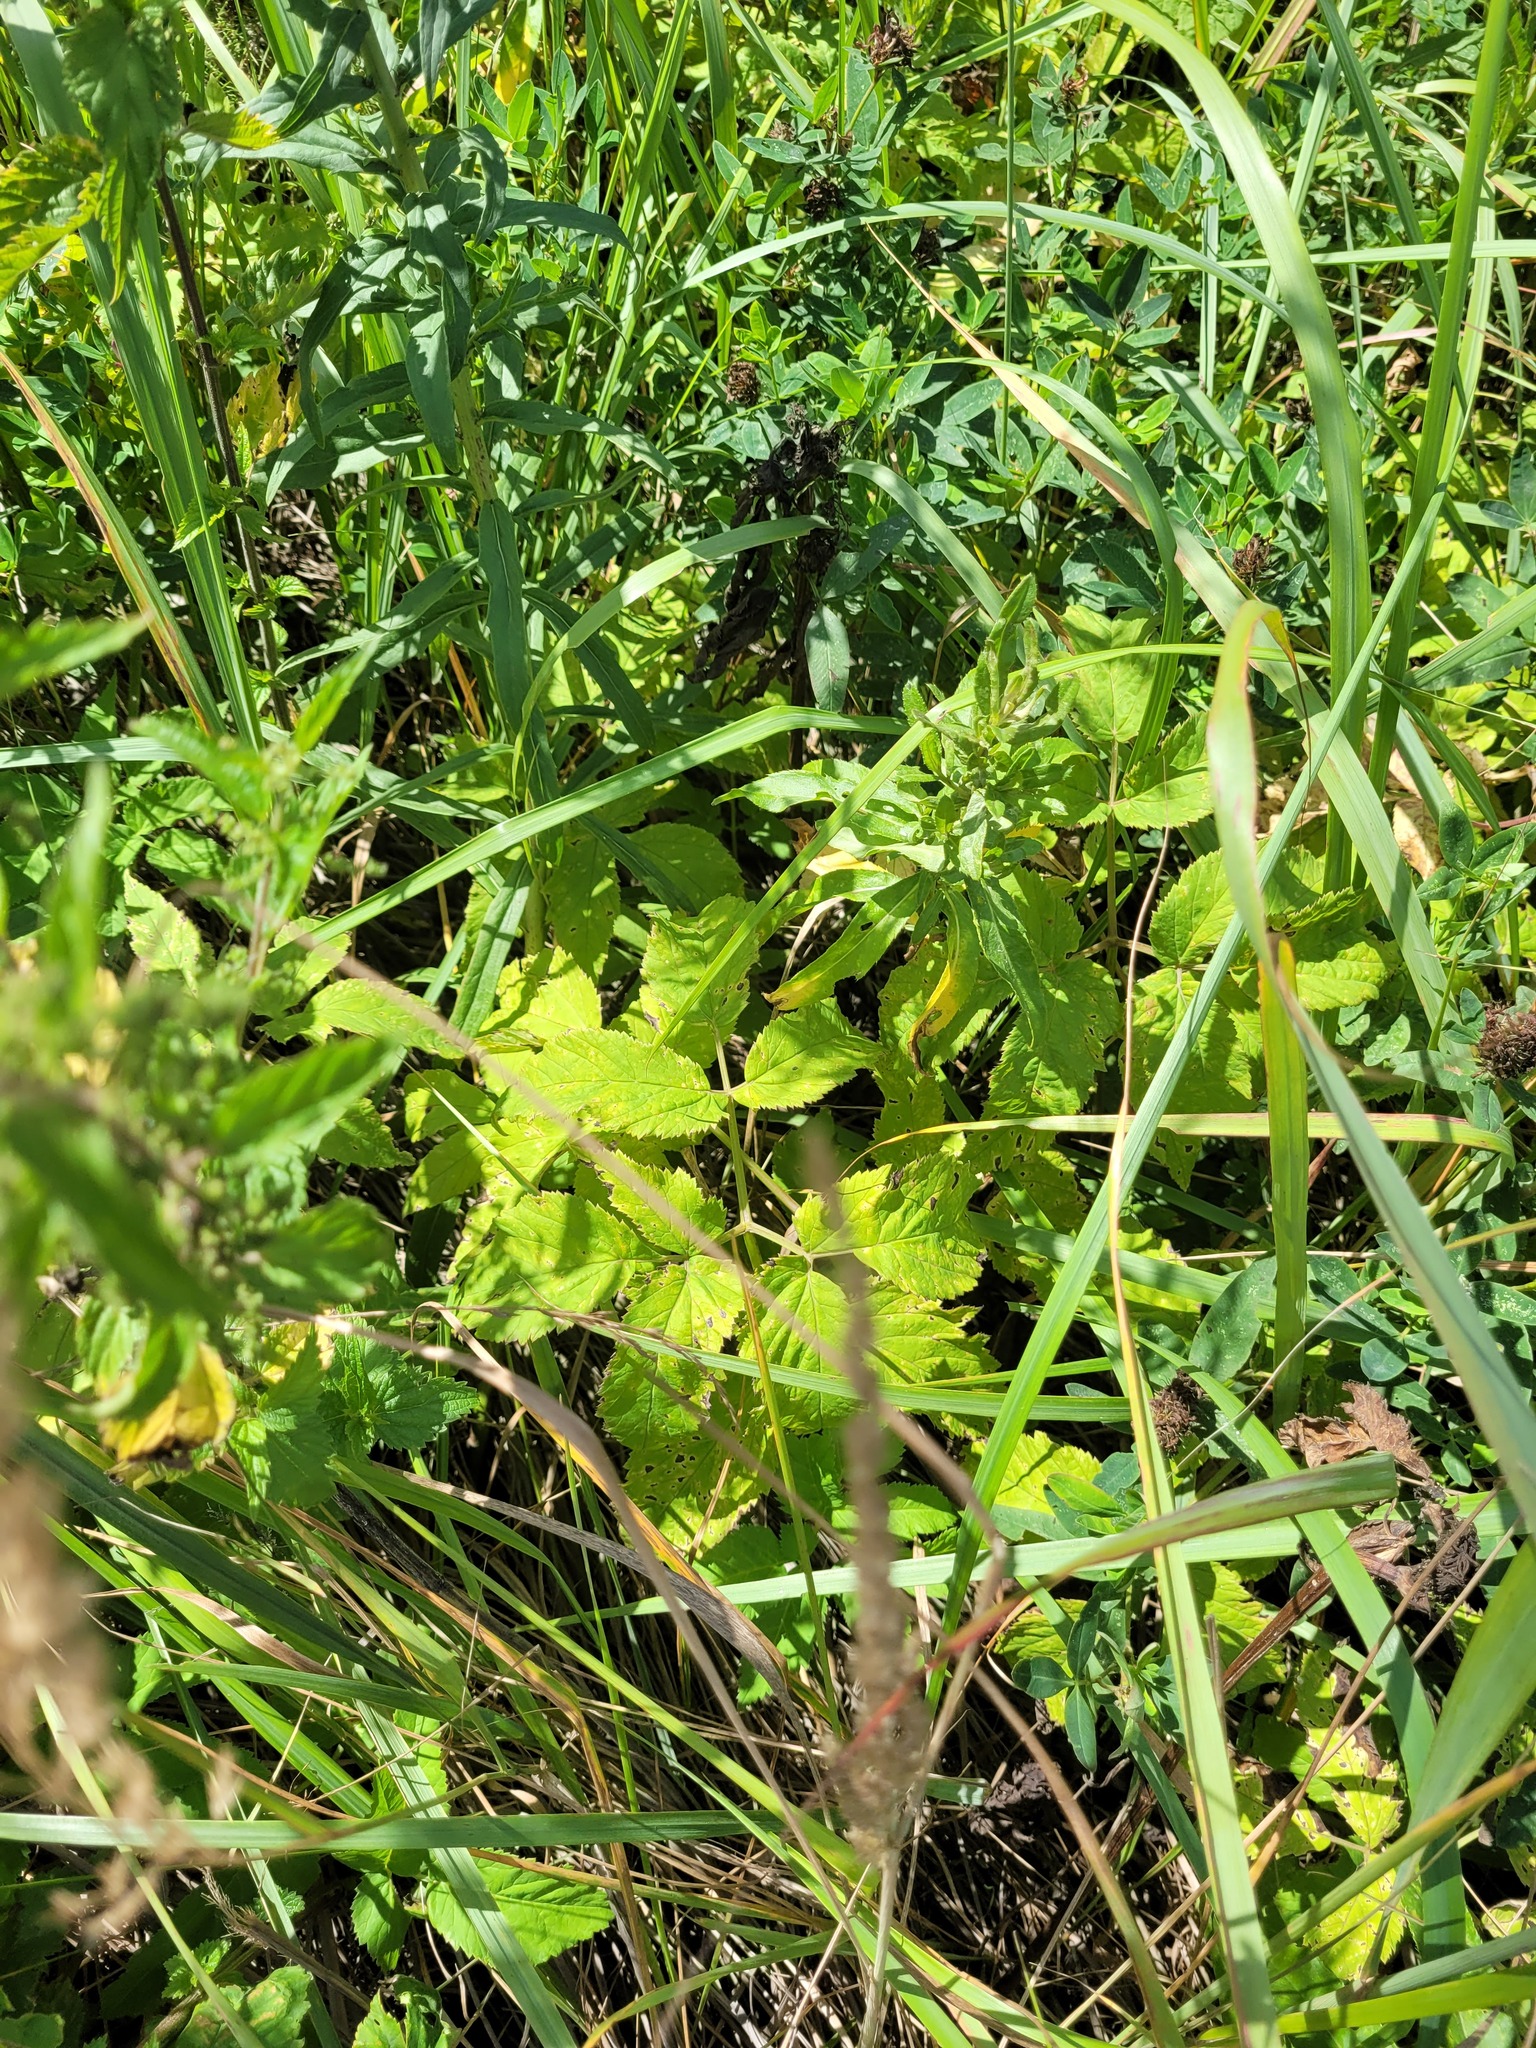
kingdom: Plantae
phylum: Tracheophyta
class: Magnoliopsida
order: Apiales
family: Apiaceae
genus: Aegopodium
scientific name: Aegopodium podagraria
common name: Ground-elder
